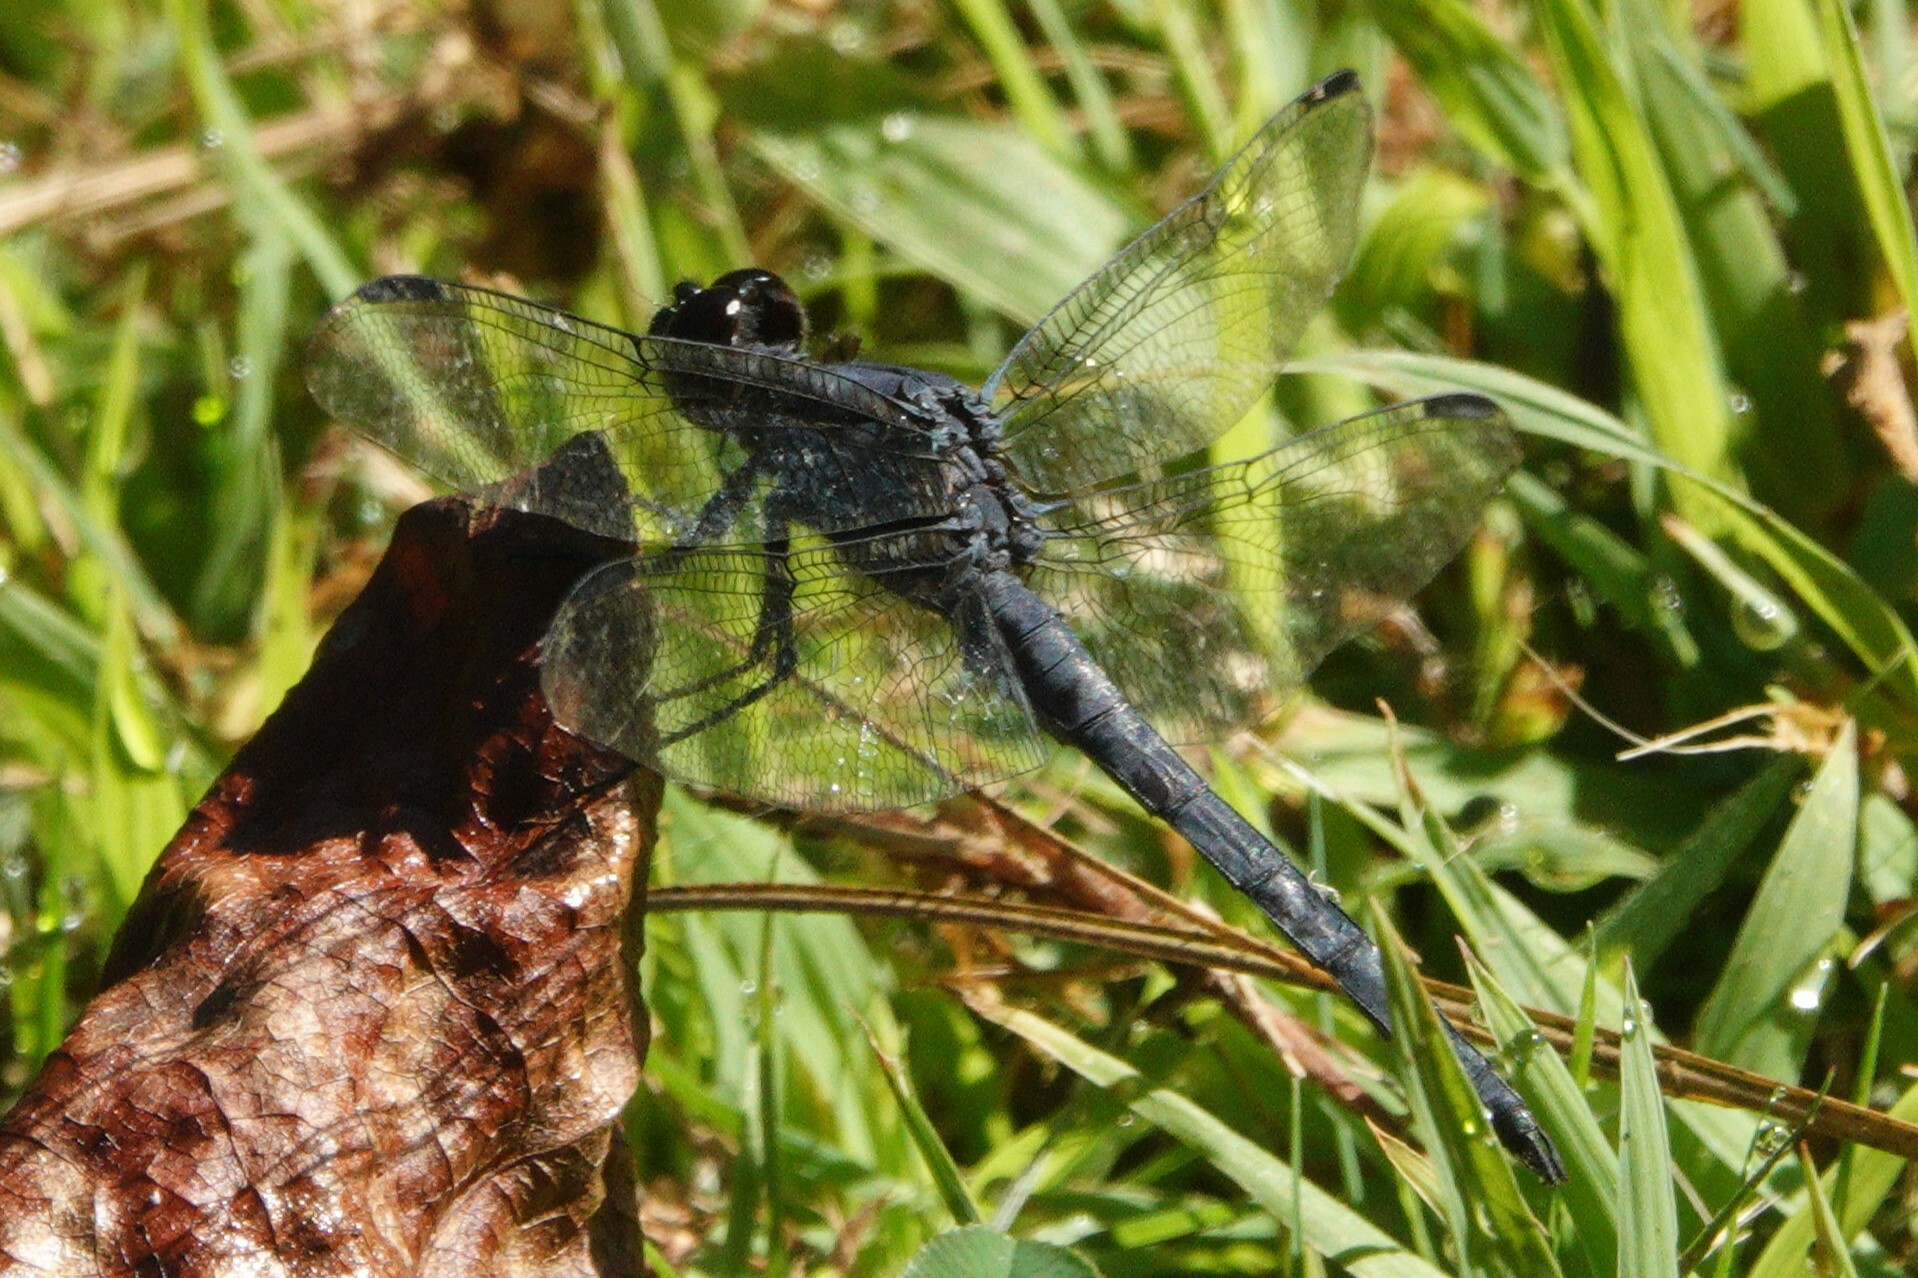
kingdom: Animalia
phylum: Arthropoda
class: Insecta
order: Odonata
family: Libellulidae
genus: Libellula
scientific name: Libellula incesta
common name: Slaty skimmer
